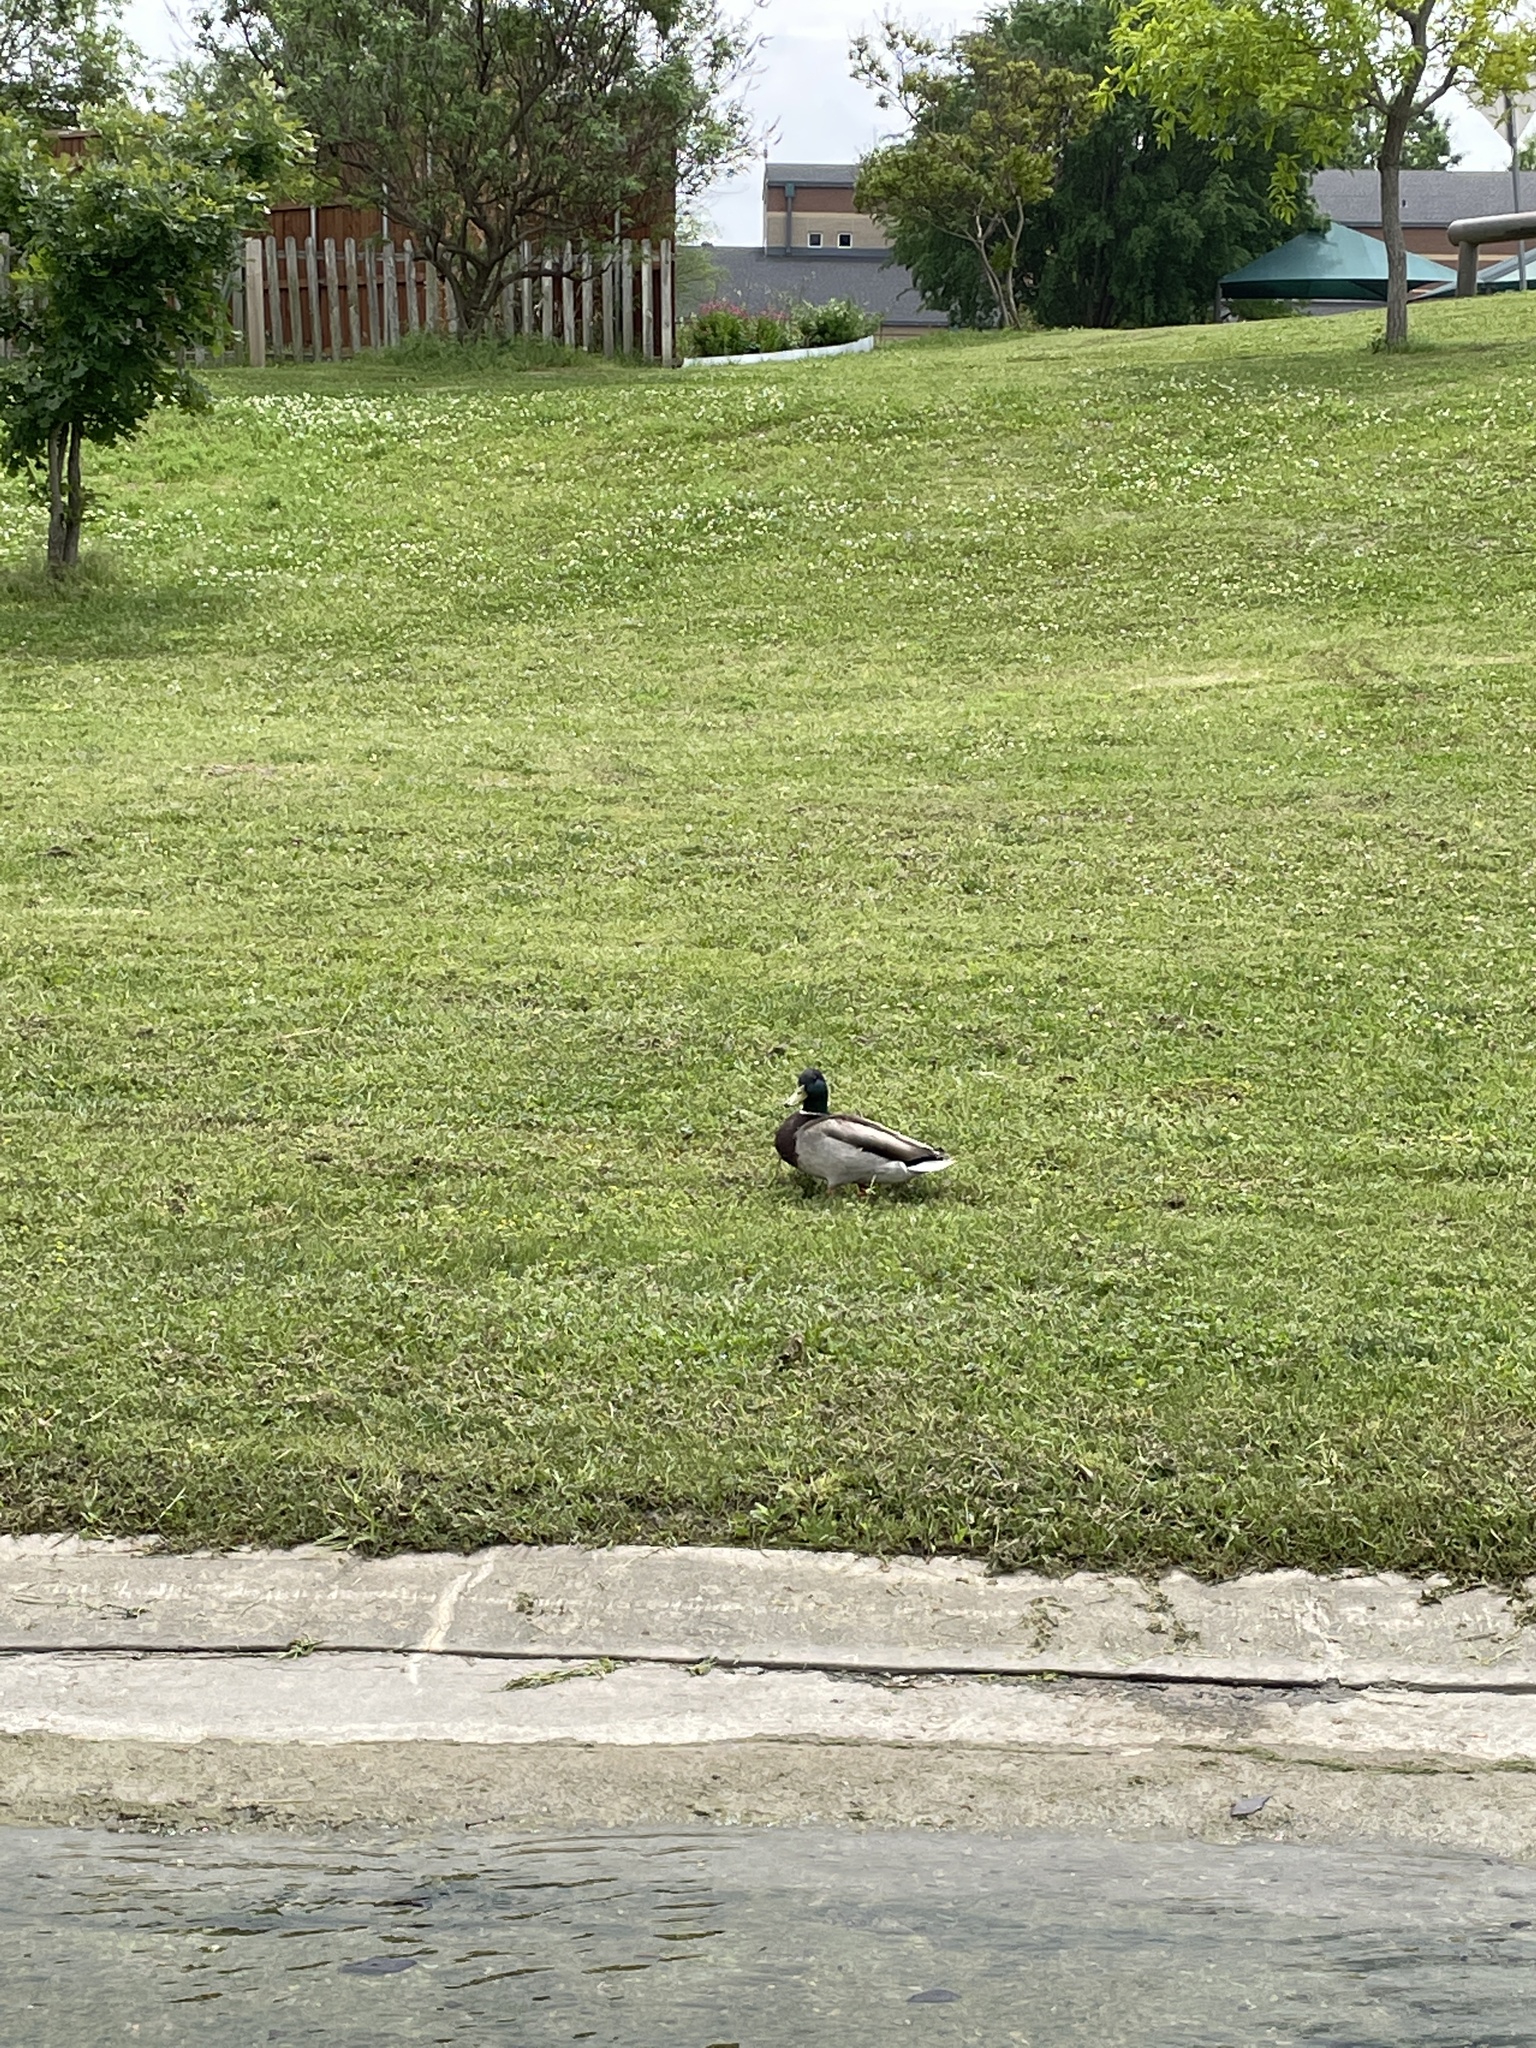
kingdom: Animalia
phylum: Chordata
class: Aves
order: Anseriformes
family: Anatidae
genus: Anas
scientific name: Anas platyrhynchos
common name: Mallard
